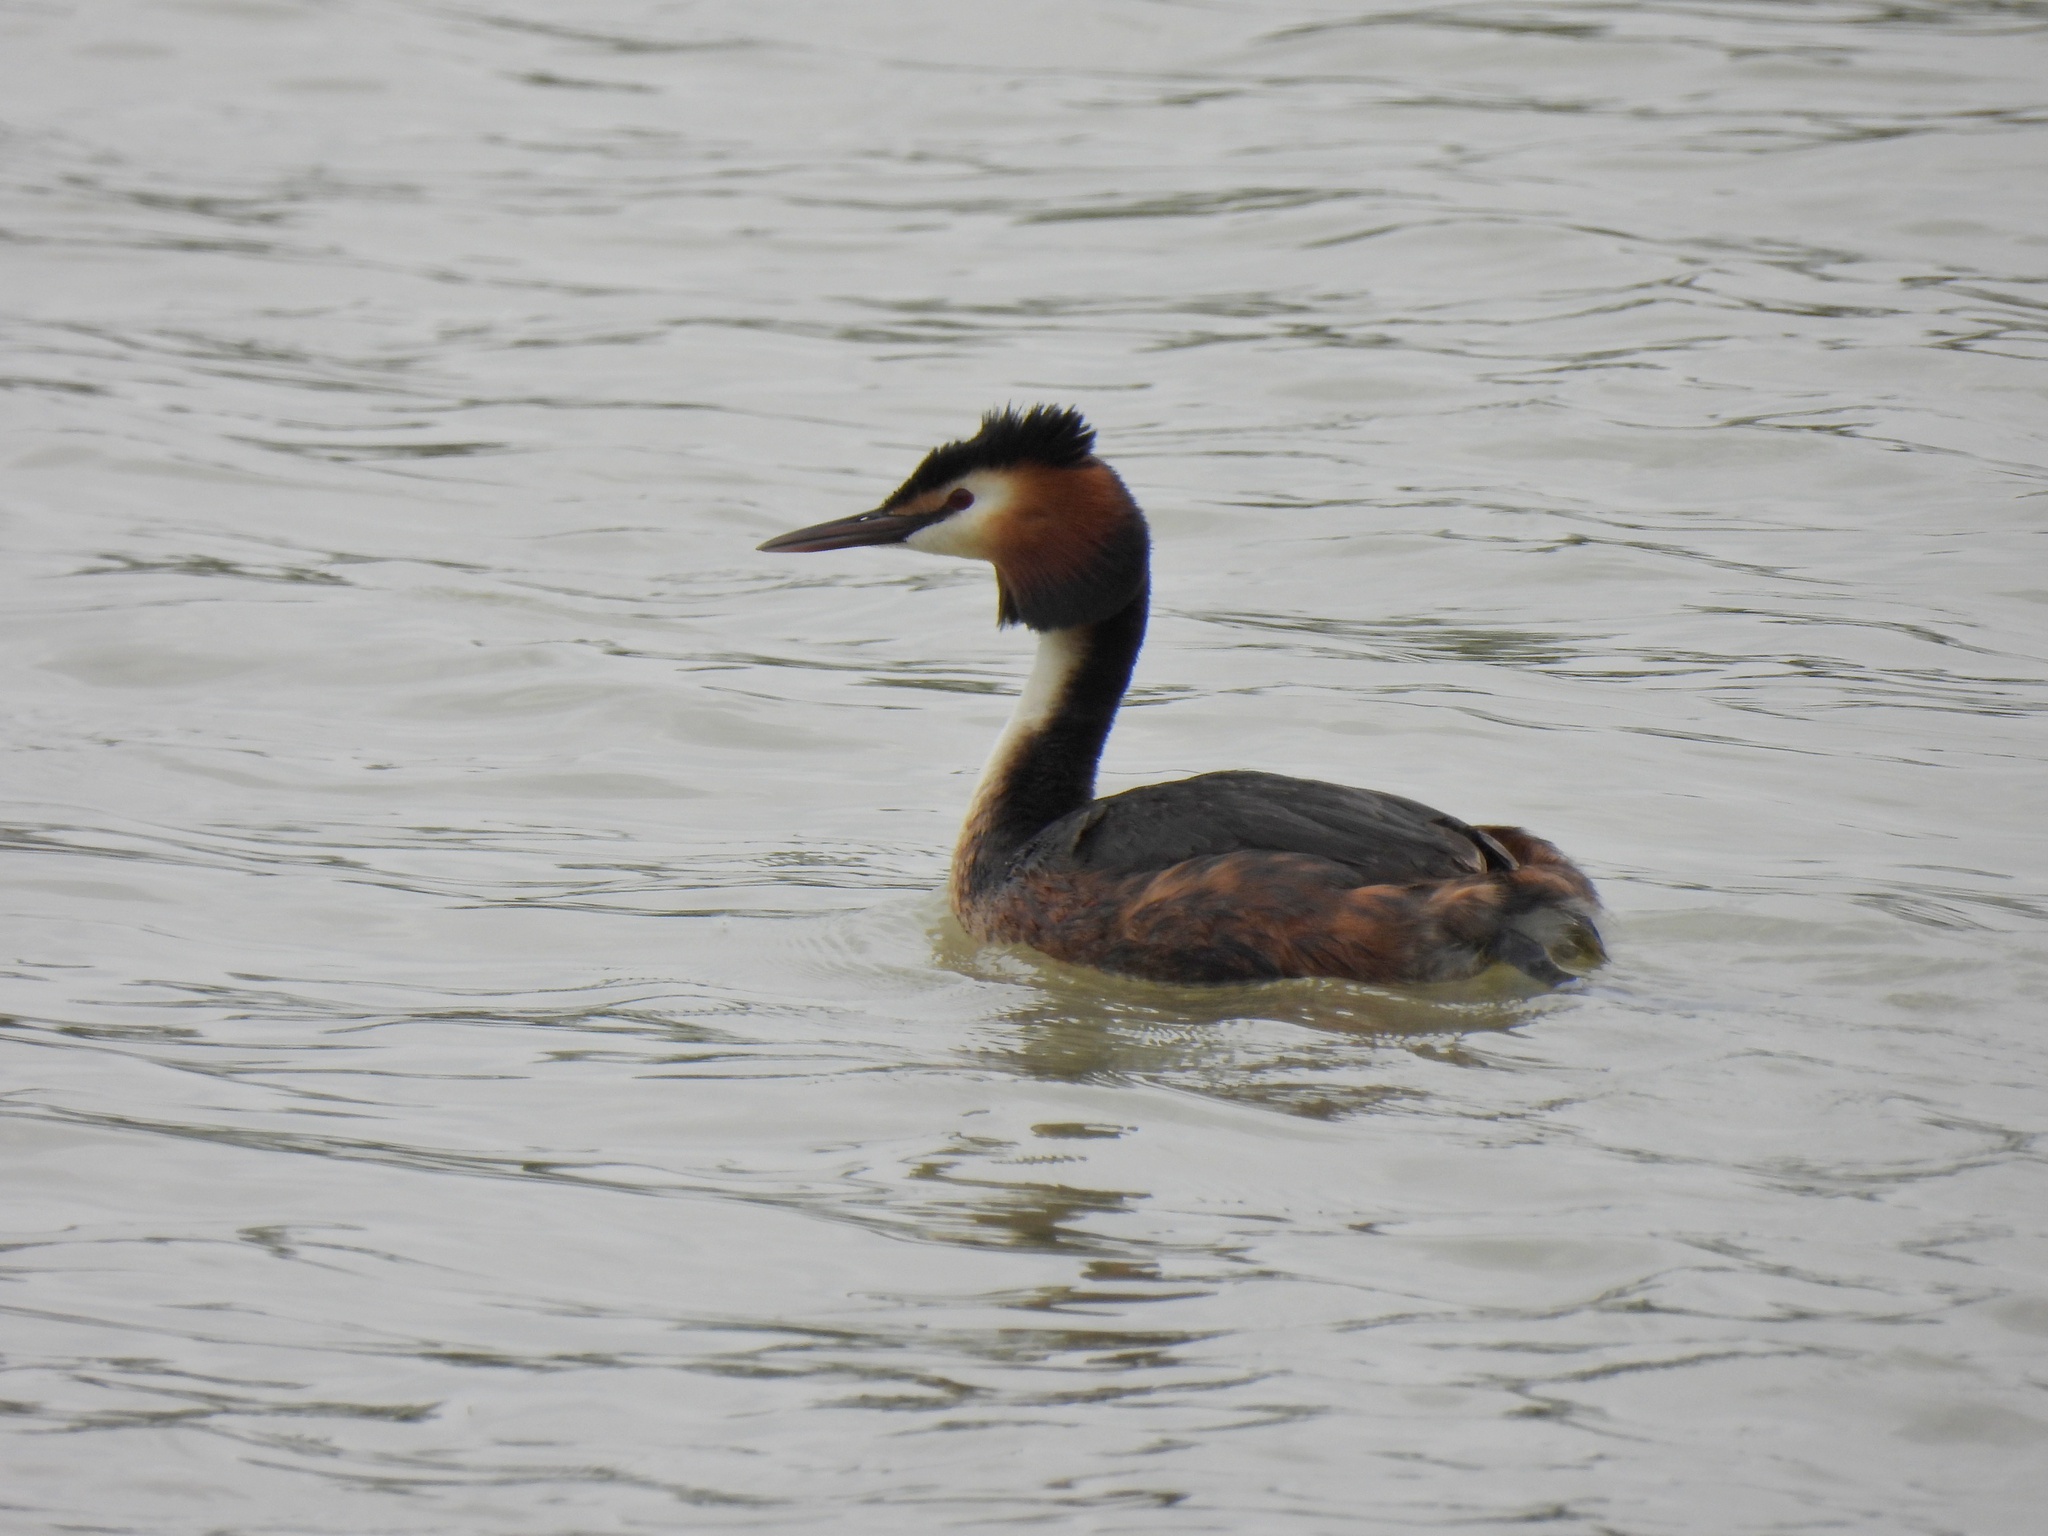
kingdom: Animalia
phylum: Chordata
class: Aves
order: Podicipediformes
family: Podicipedidae
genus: Podiceps
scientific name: Podiceps cristatus
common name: Great crested grebe
